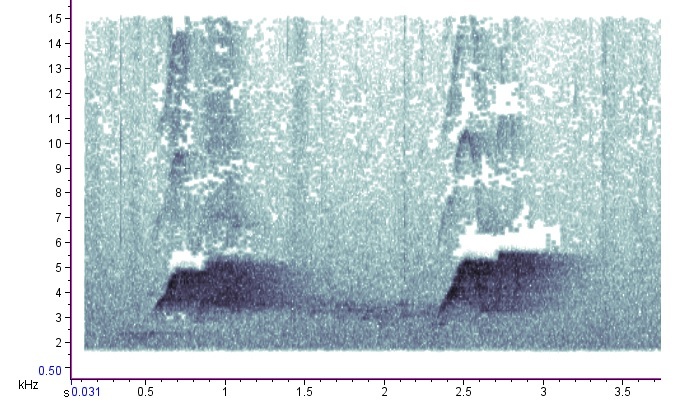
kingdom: Animalia
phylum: Chordata
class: Aves
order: Passeriformes
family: Tyrannidae
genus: Sayornis
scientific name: Sayornis phoebe
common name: Eastern phoebe
